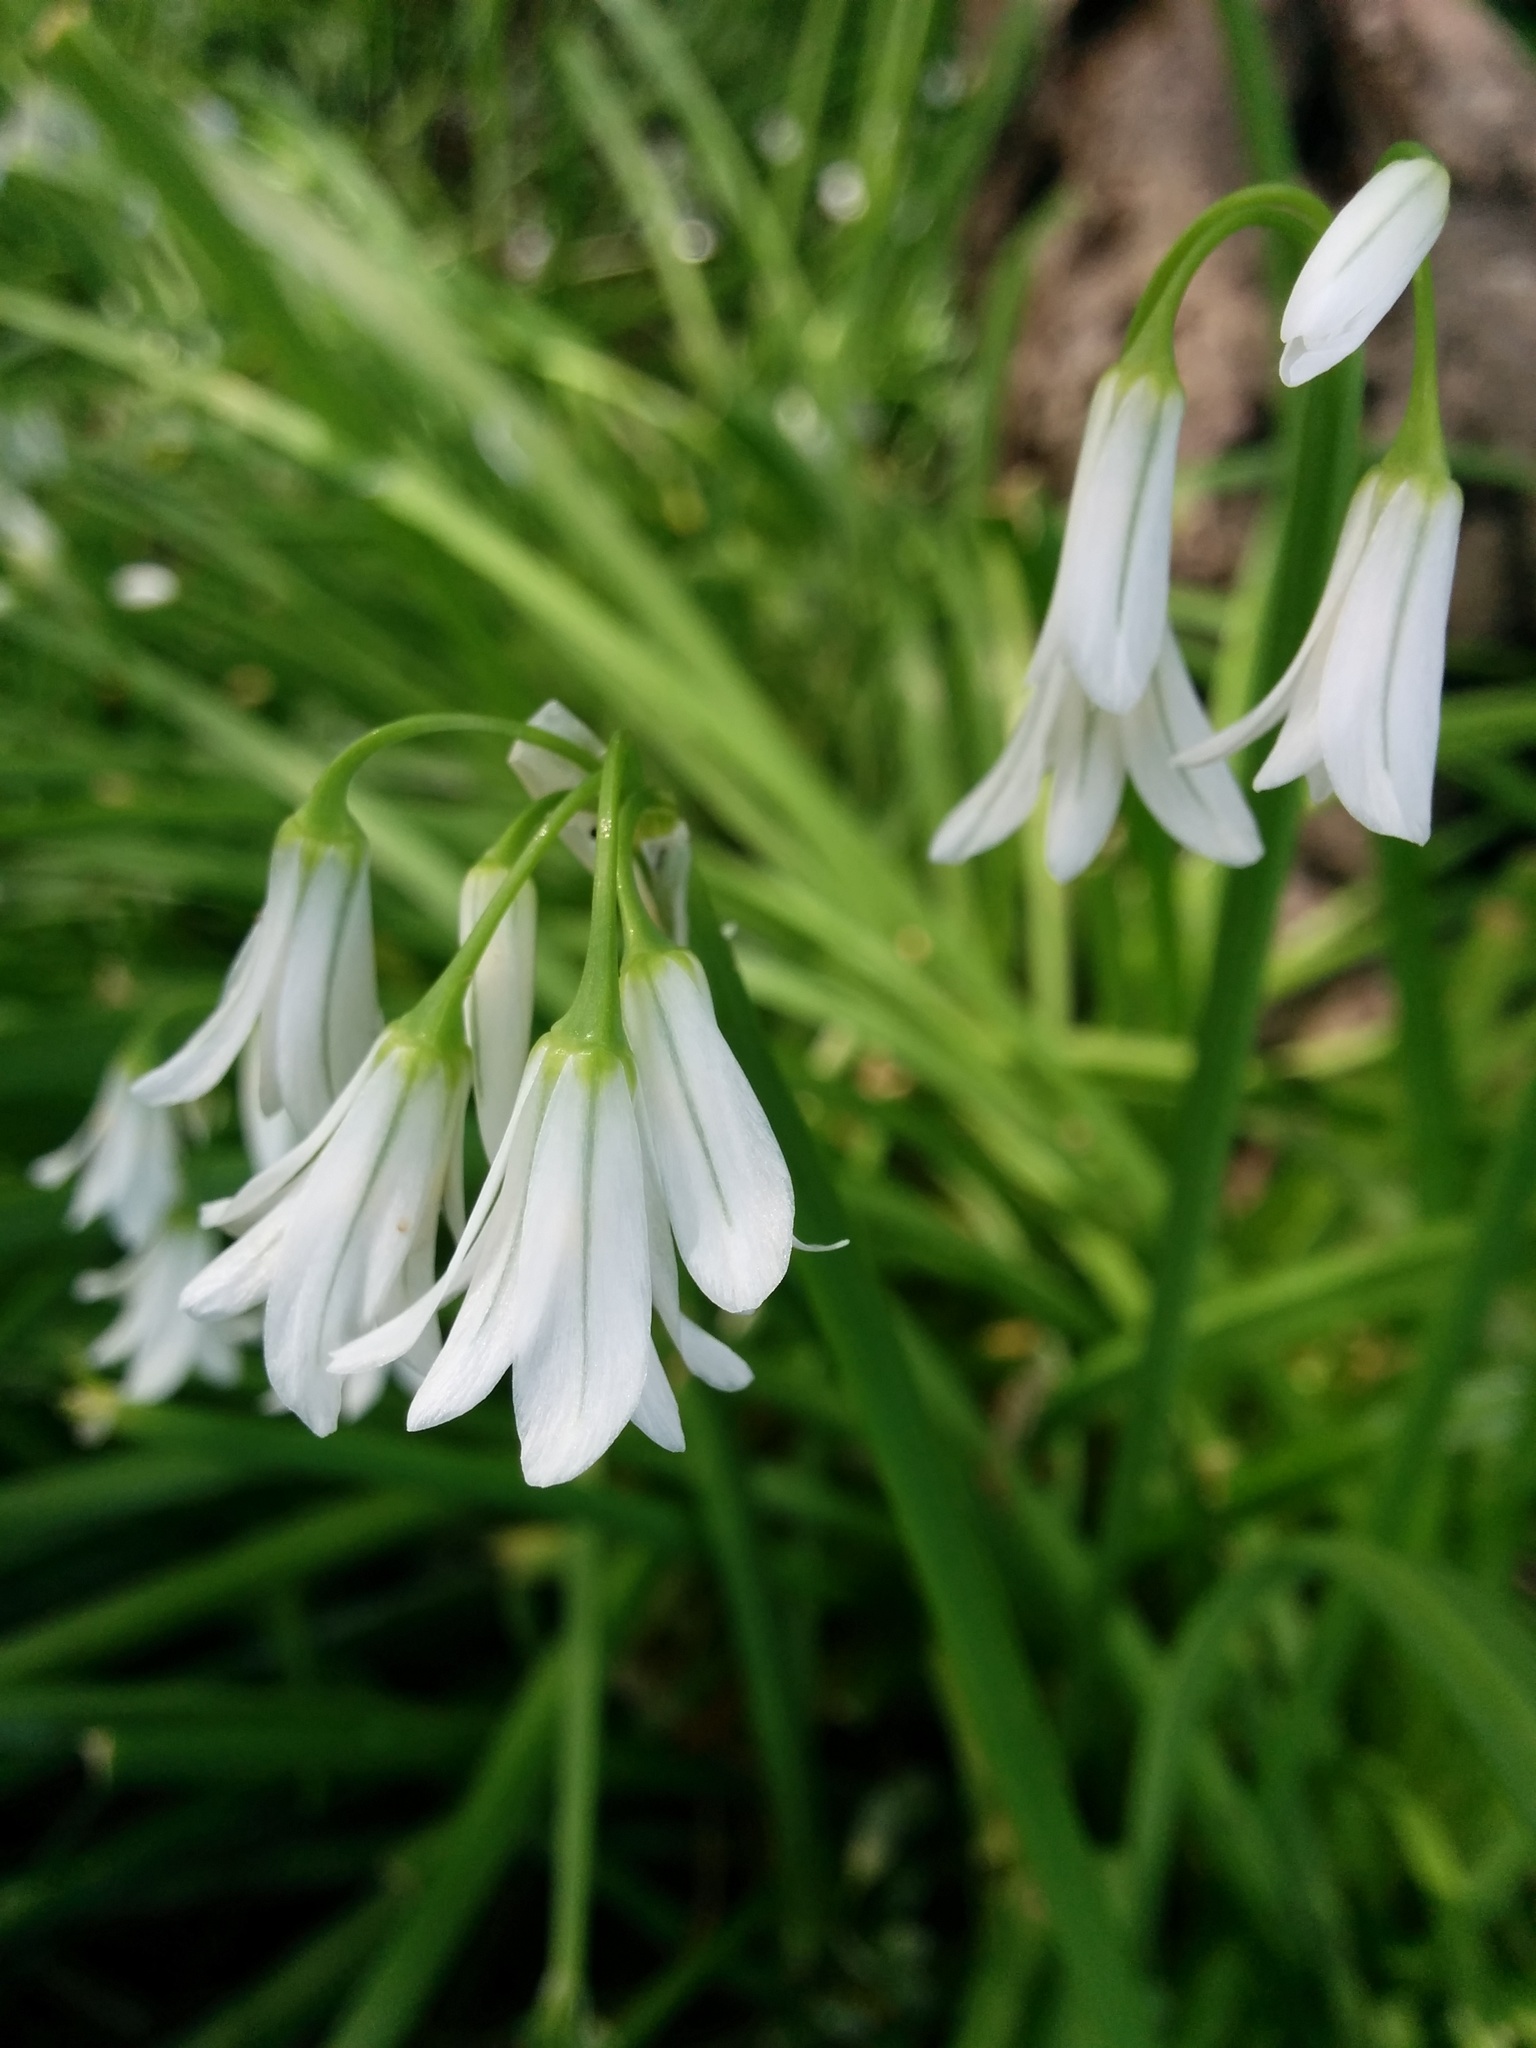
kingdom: Plantae
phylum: Tracheophyta
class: Liliopsida
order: Asparagales
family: Amaryllidaceae
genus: Allium
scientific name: Allium triquetrum
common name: Three-cornered garlic
